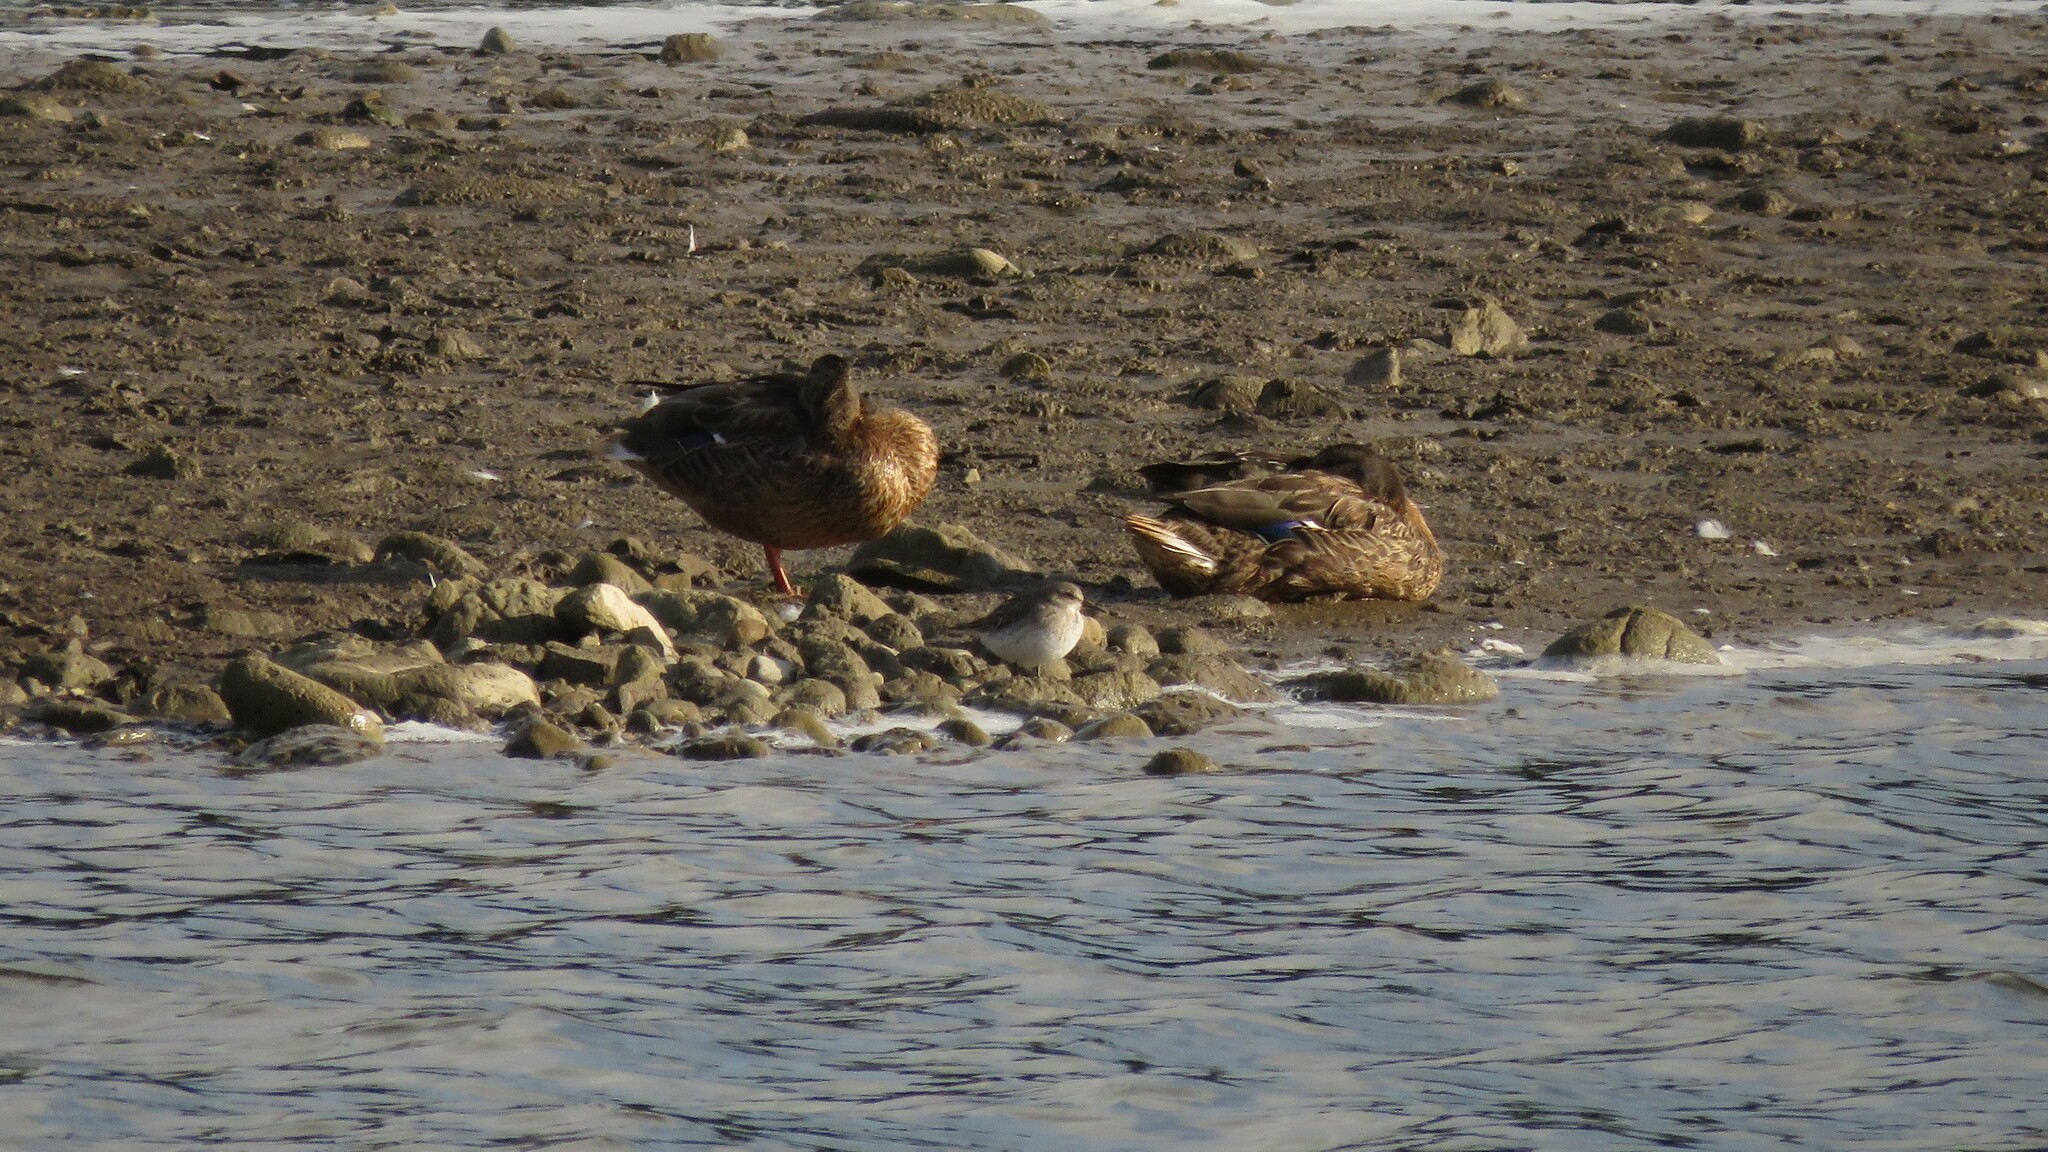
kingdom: Animalia
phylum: Chordata
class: Aves
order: Charadriiformes
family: Scolopacidae
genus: Calidris
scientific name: Calidris fuscicollis
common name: White-rumped sandpiper
